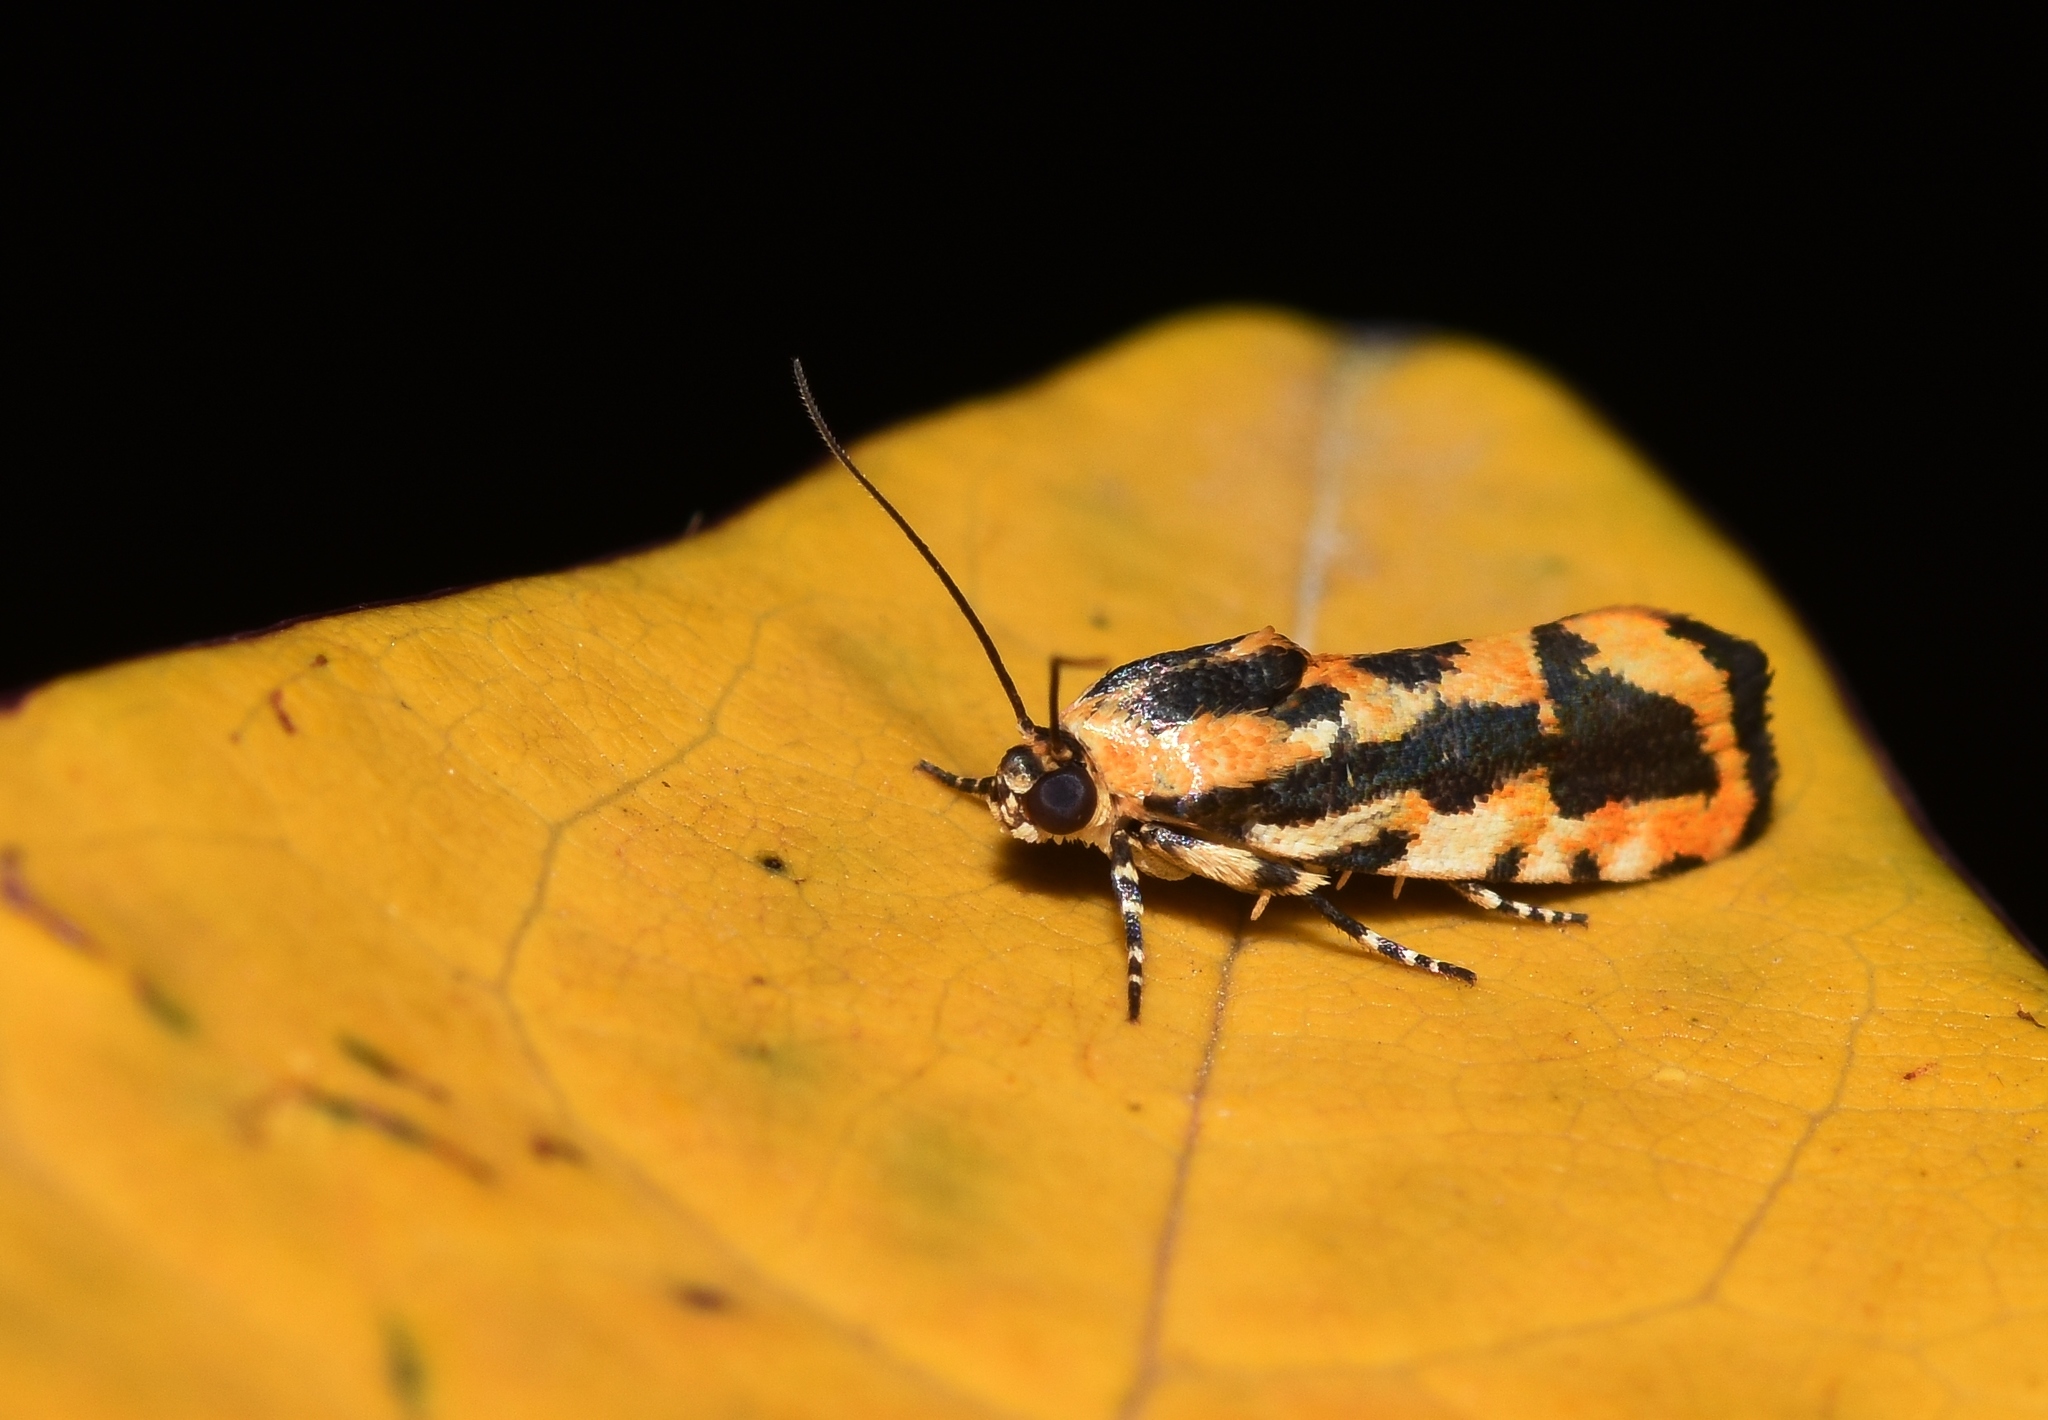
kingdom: Animalia
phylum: Arthropoda
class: Insecta
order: Lepidoptera
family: Noctuidae
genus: Acontia
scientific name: Acontia leo
